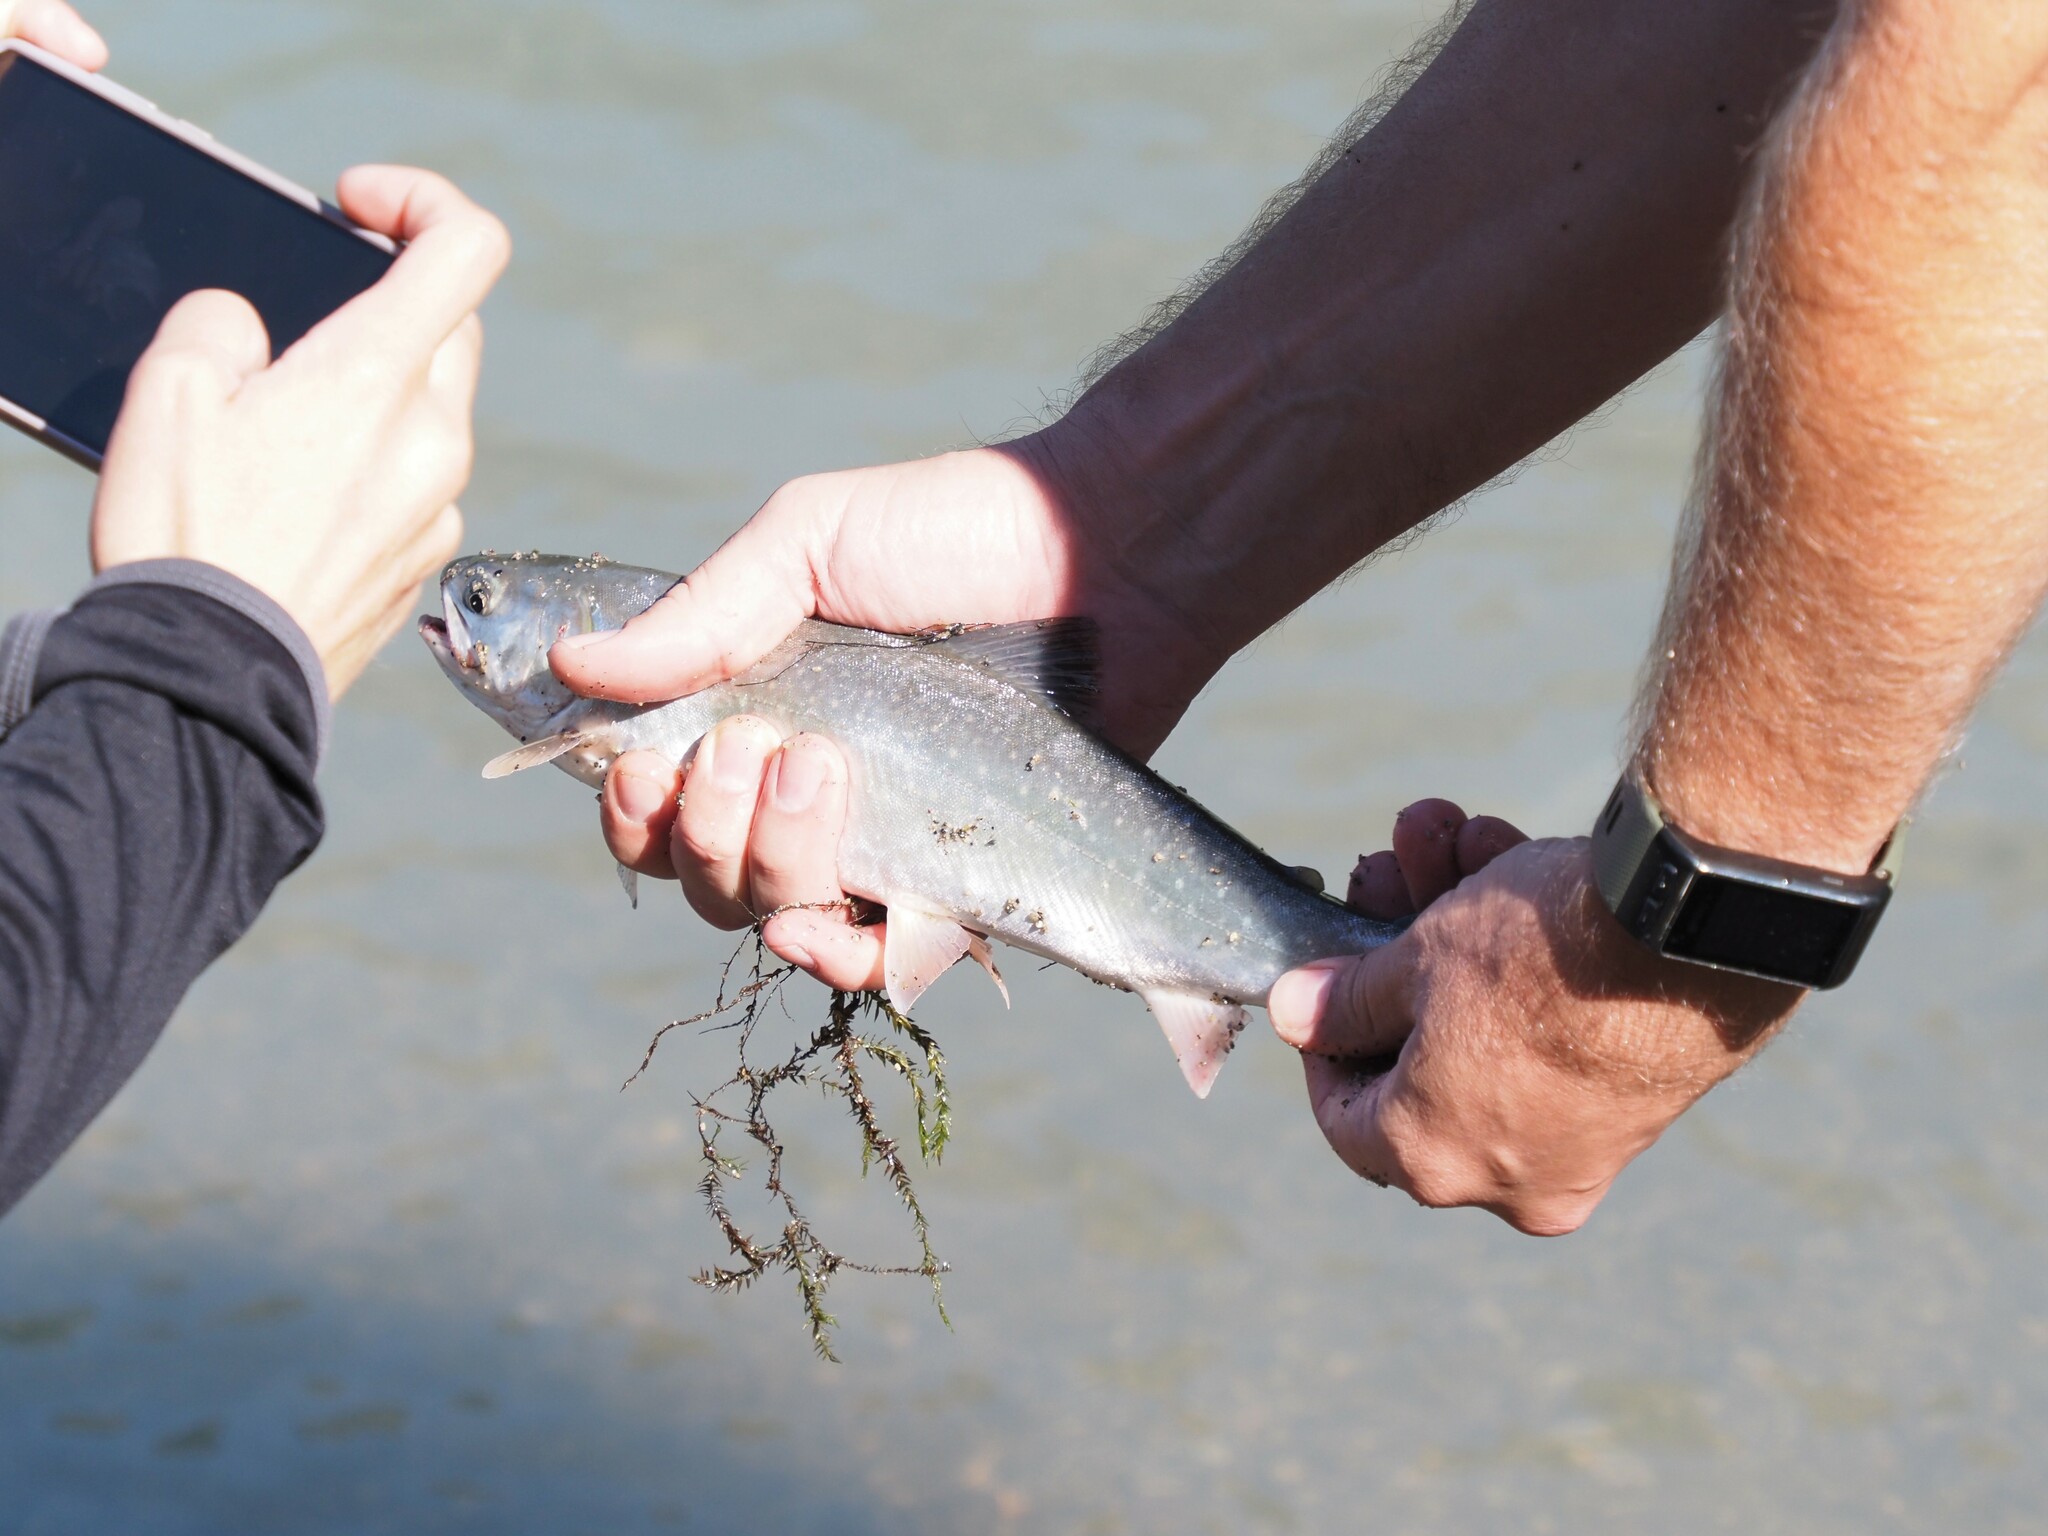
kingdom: Animalia
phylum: Chordata
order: Salmoniformes
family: Salmonidae
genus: Salvelinus
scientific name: Salvelinus malma
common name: Dolly varden charr
